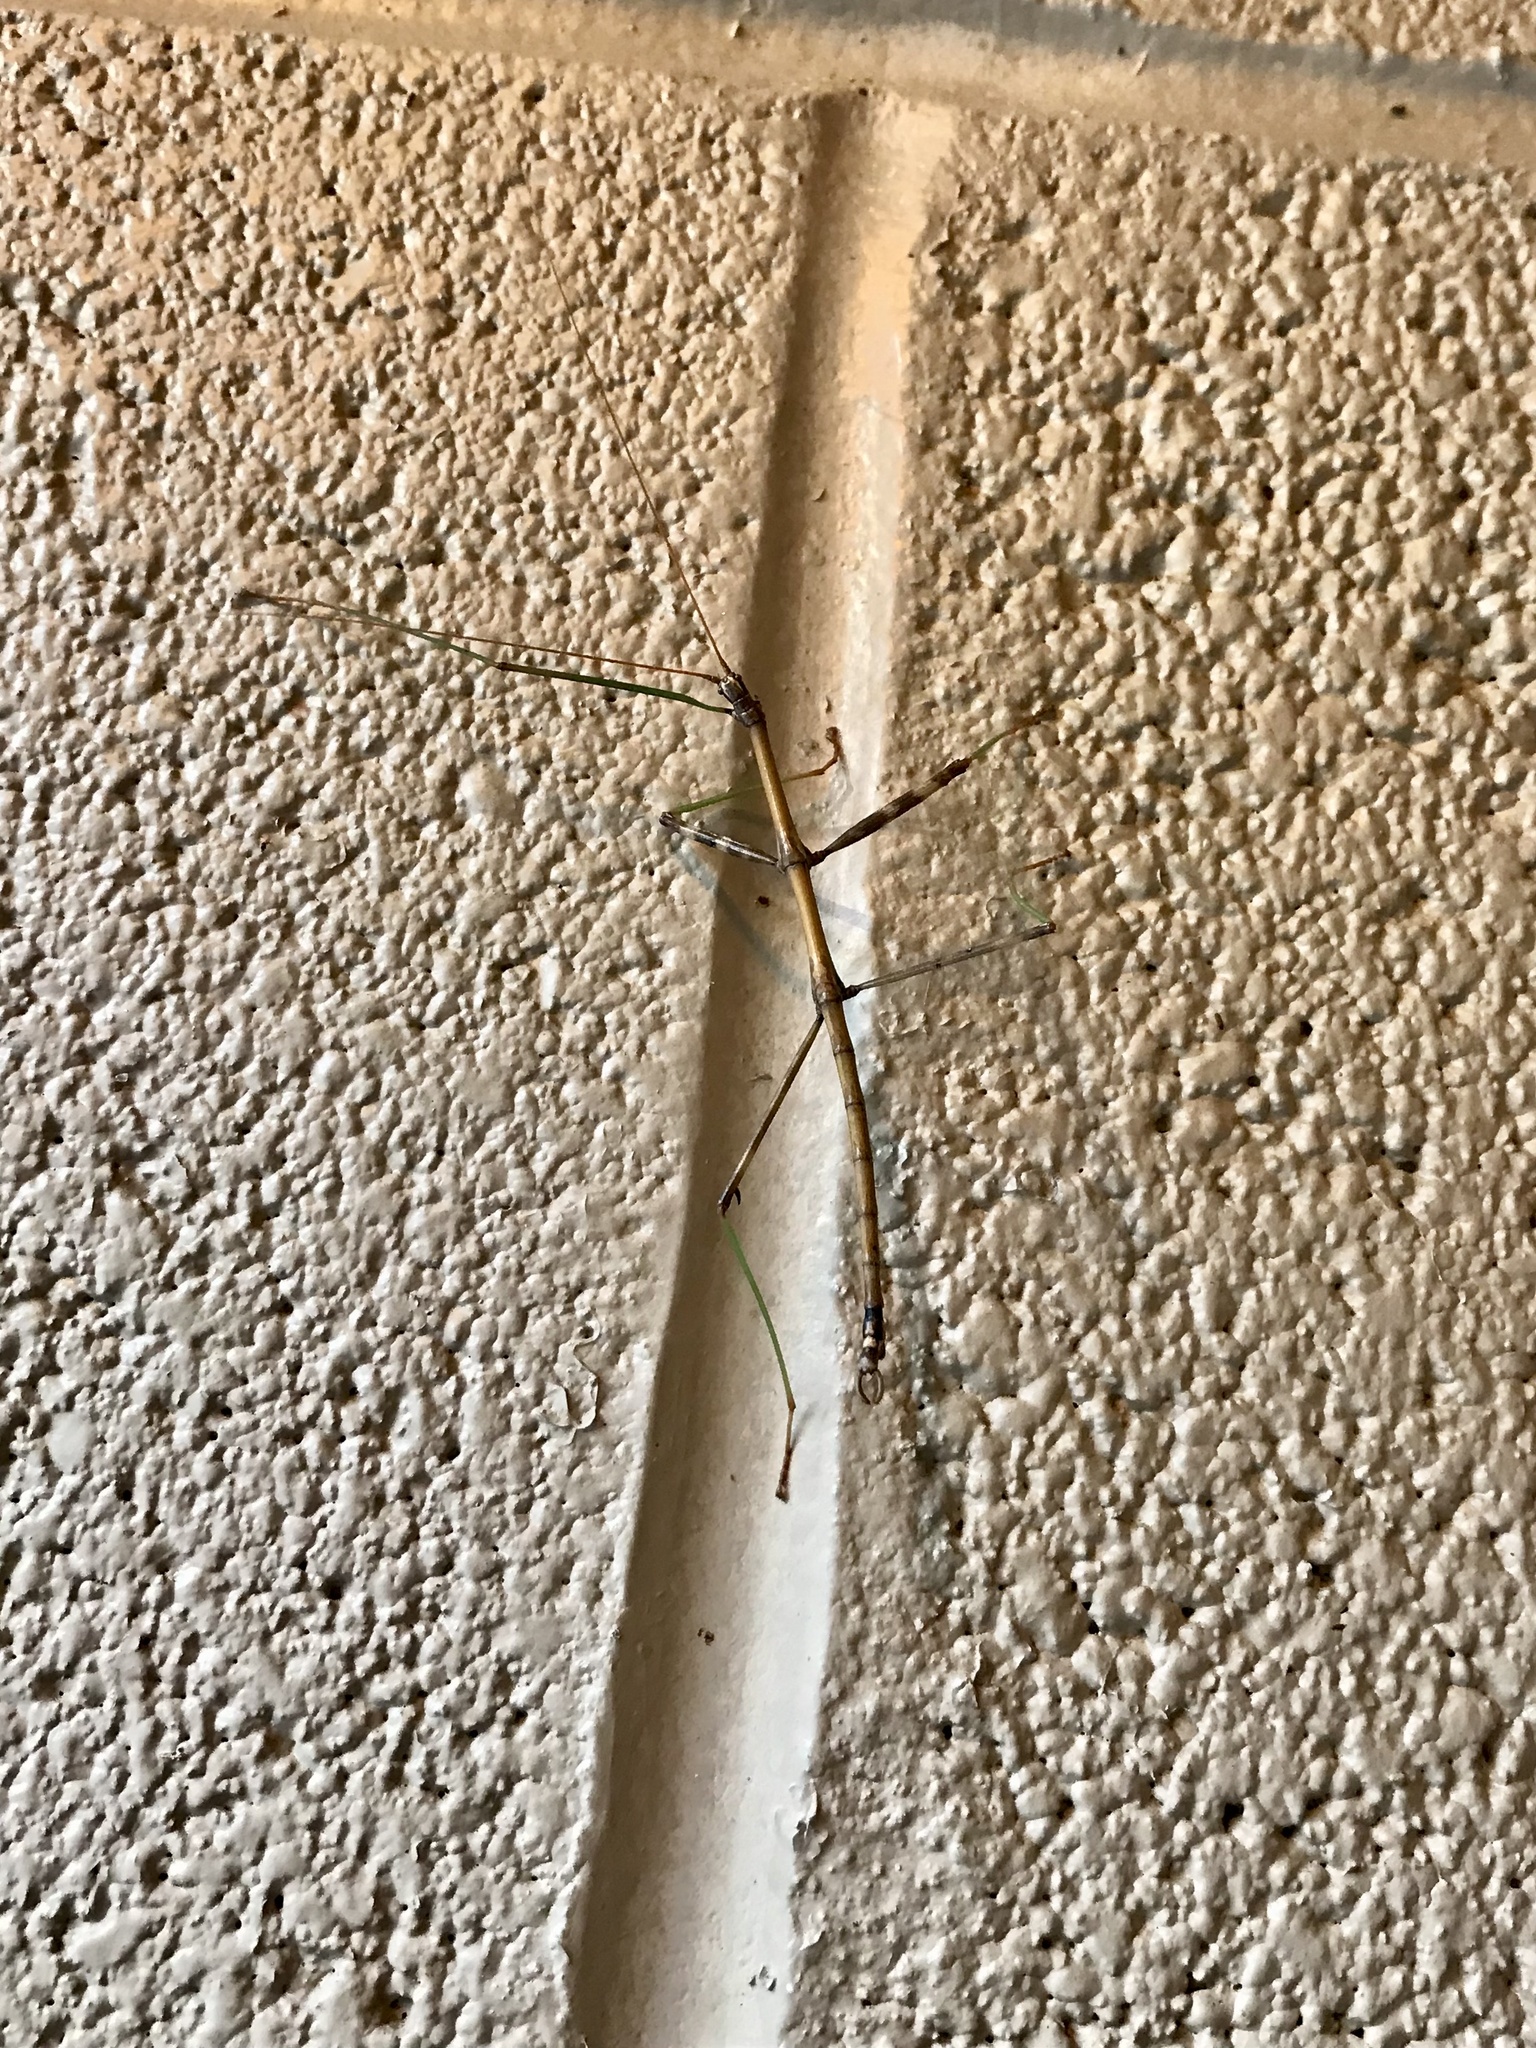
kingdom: Animalia
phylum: Arthropoda
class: Insecta
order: Phasmida
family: Diapheromeridae
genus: Diapheromera
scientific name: Diapheromera femorata
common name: Common american walkingstick
